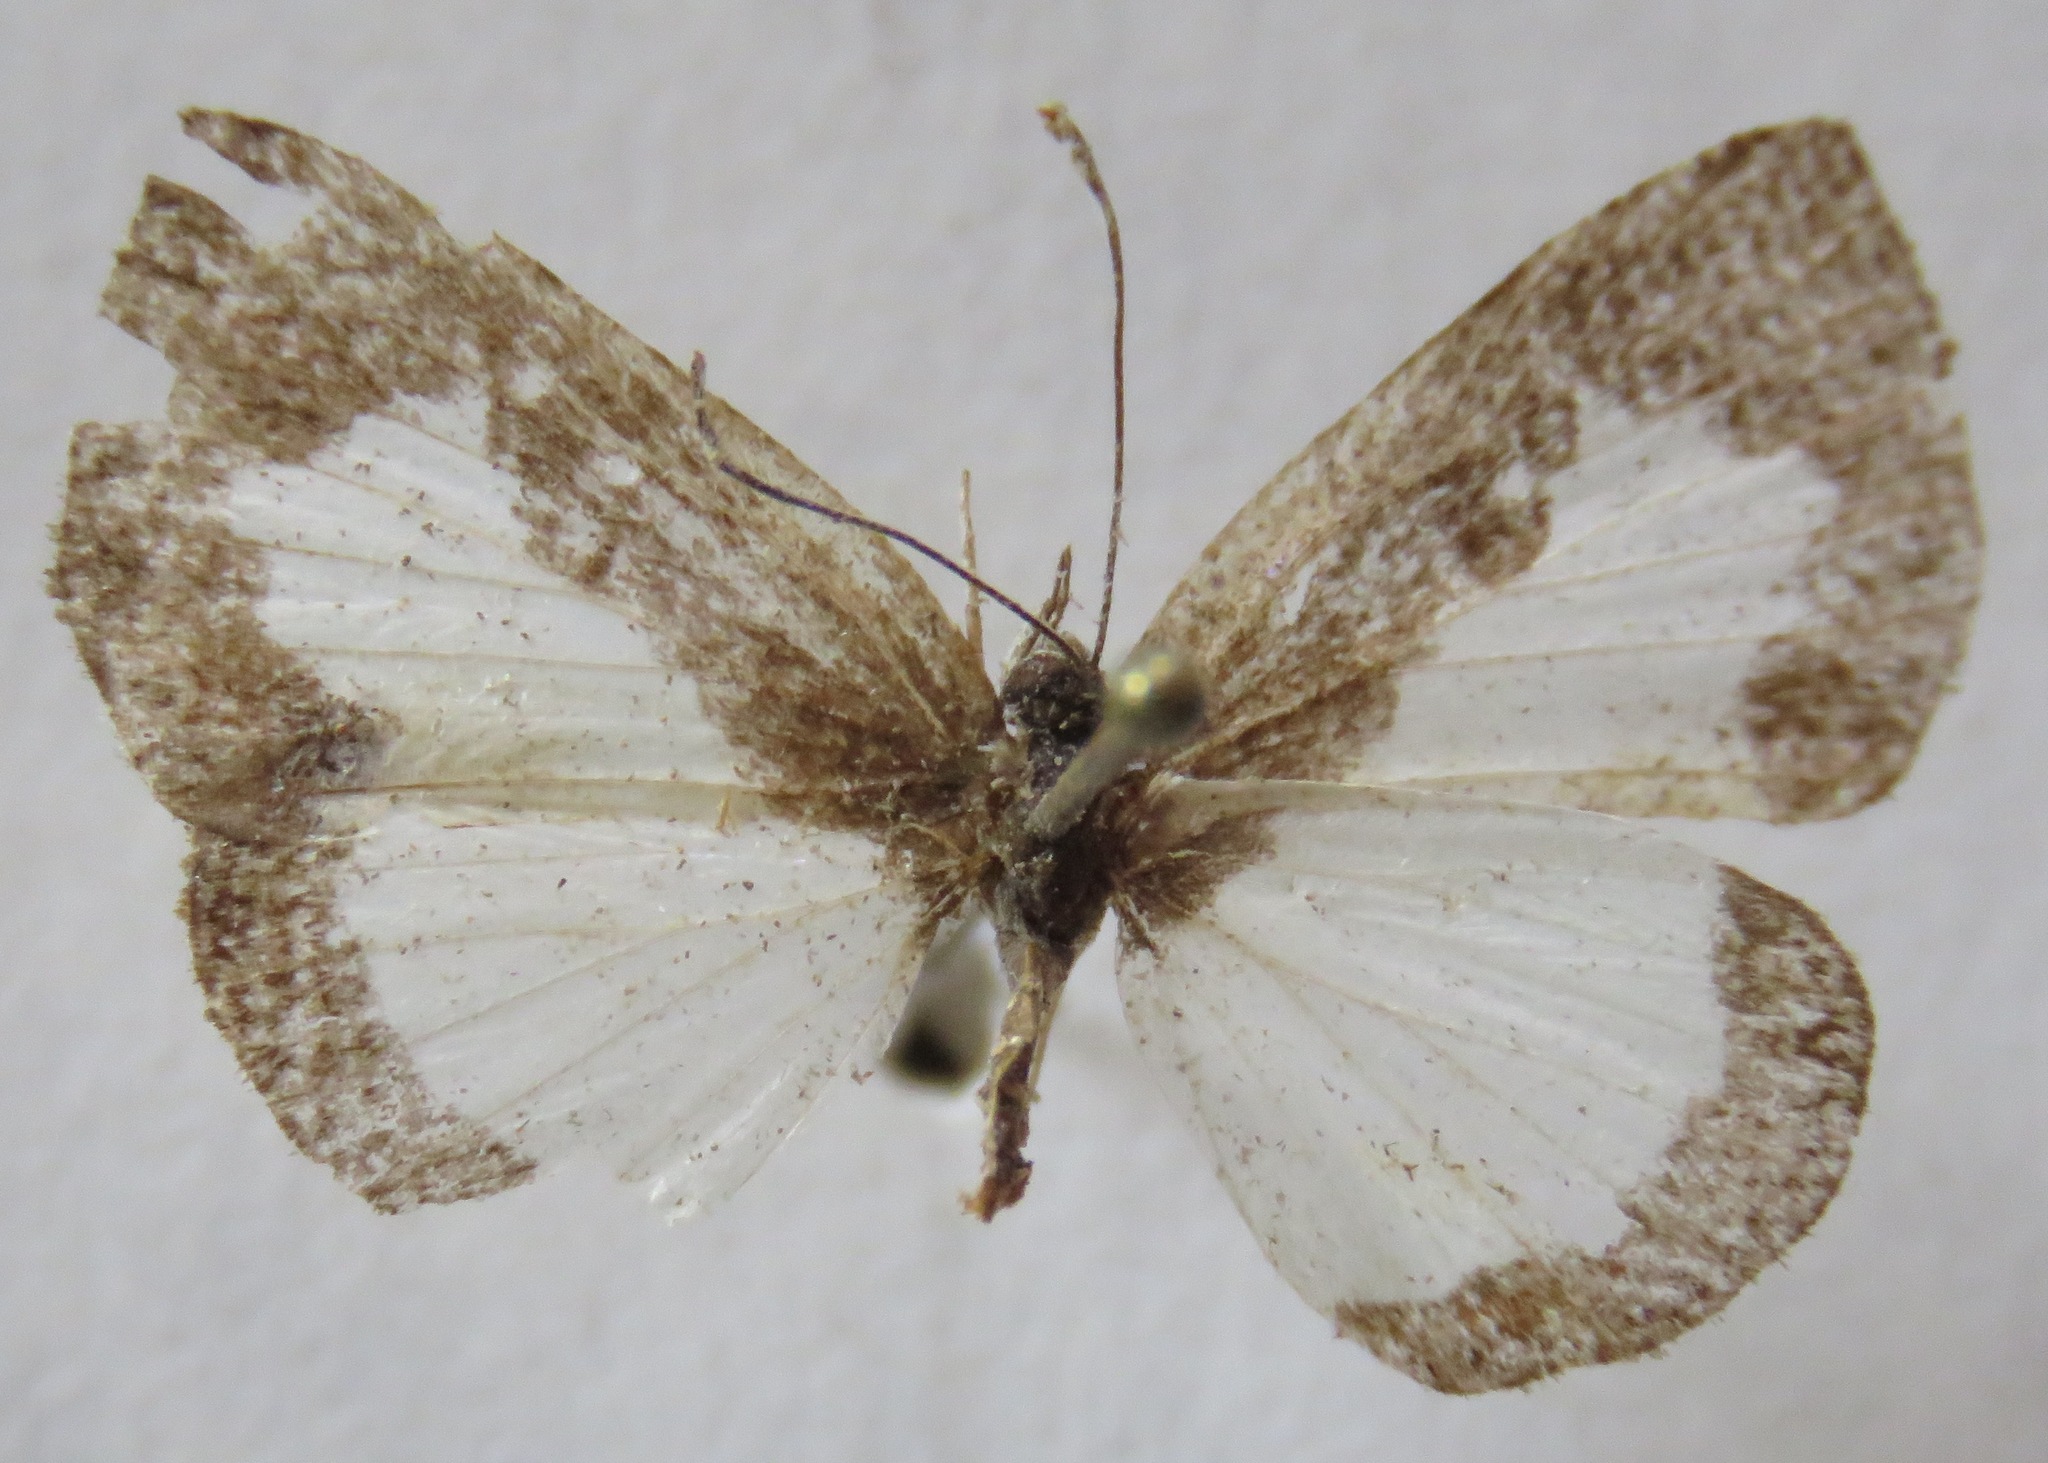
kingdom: Animalia
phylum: Arthropoda
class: Insecta
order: Lepidoptera
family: Riodinidae
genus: Juditha
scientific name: Juditha caucana
